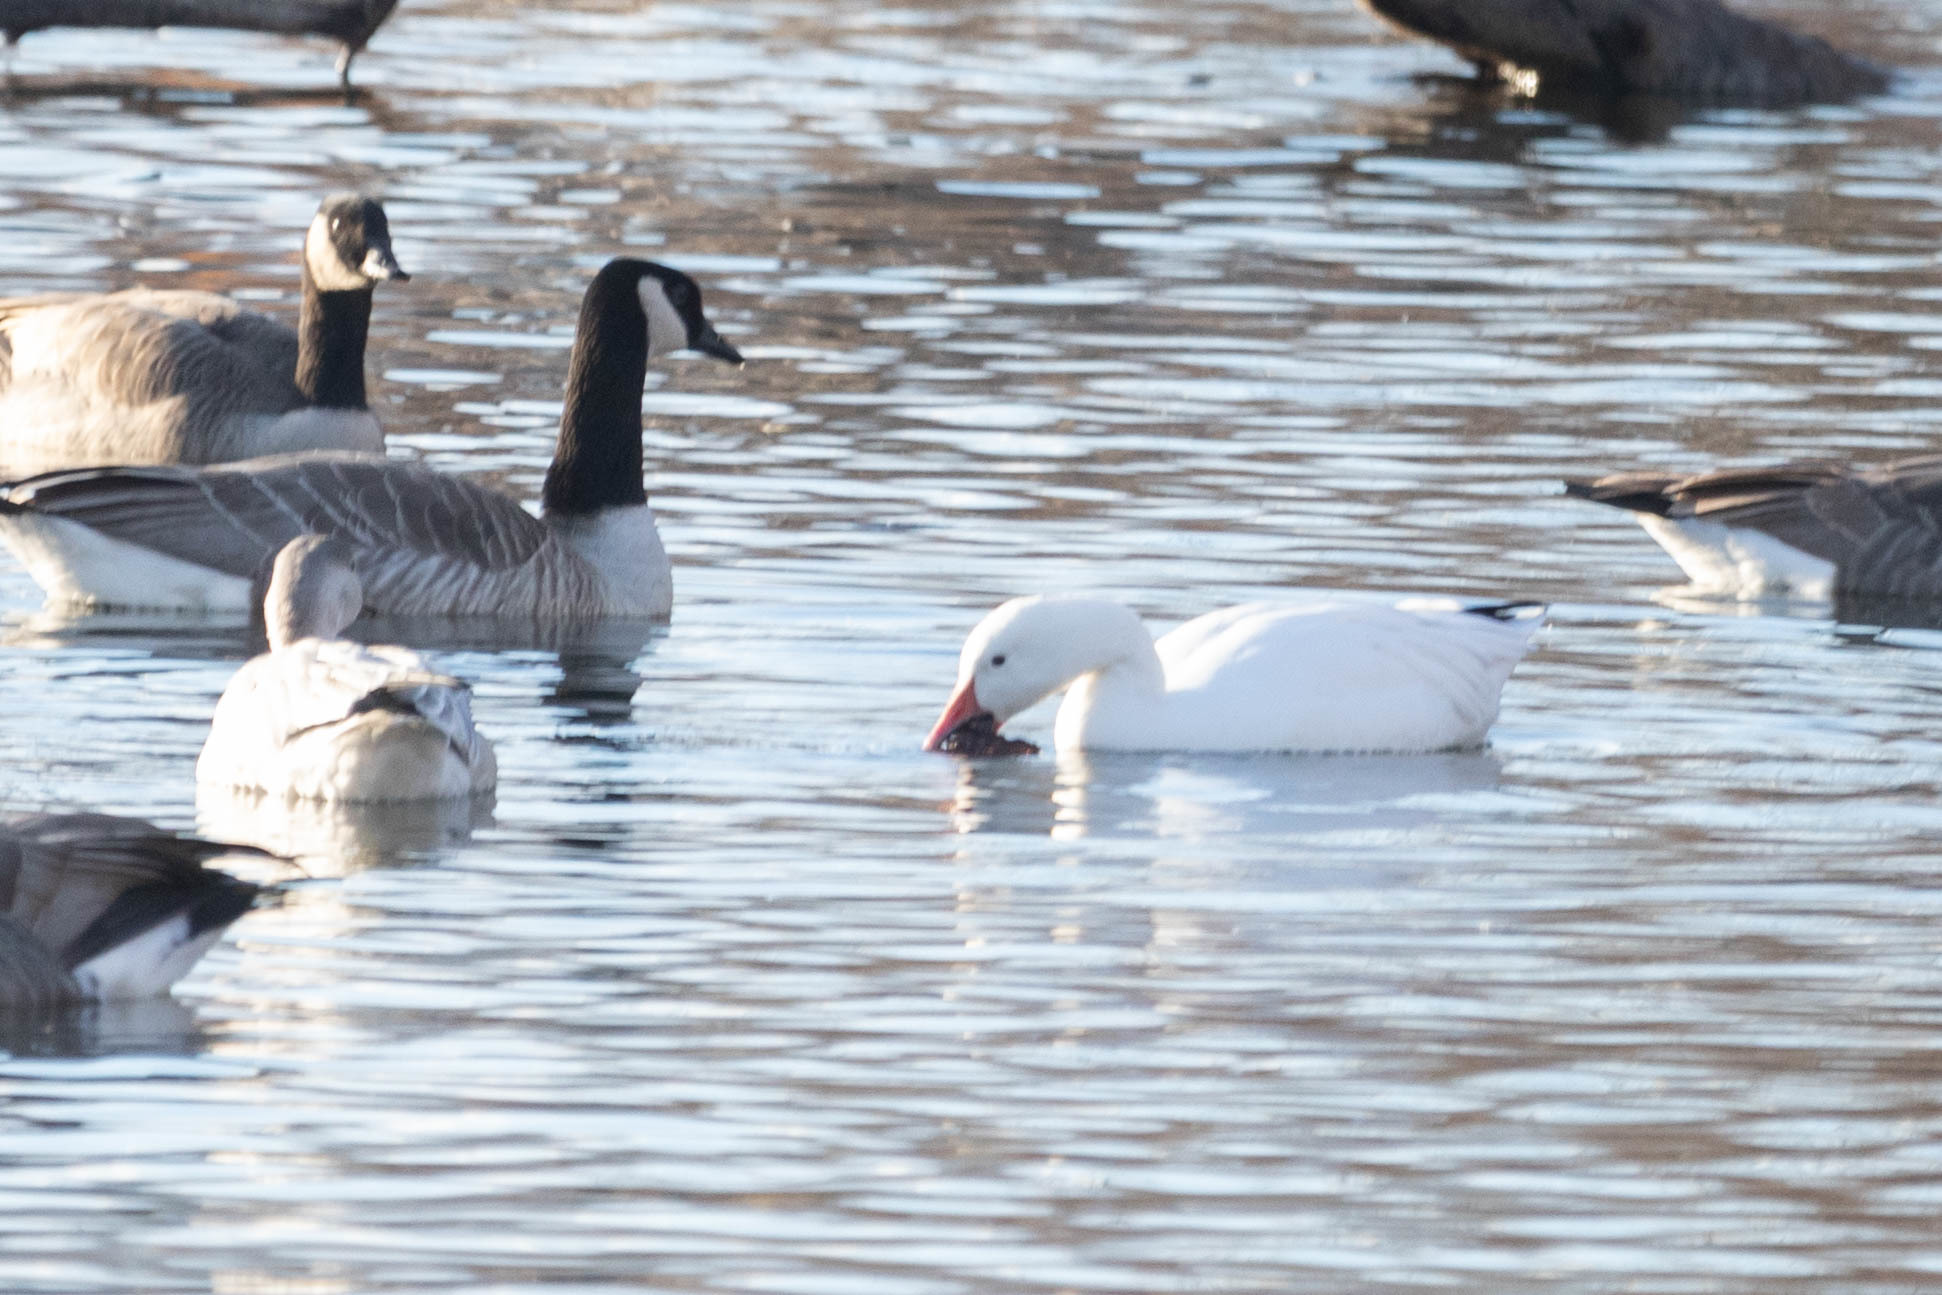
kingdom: Animalia
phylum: Chordata
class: Aves
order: Anseriformes
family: Anatidae
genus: Anser
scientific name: Anser caerulescens
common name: Snow goose
